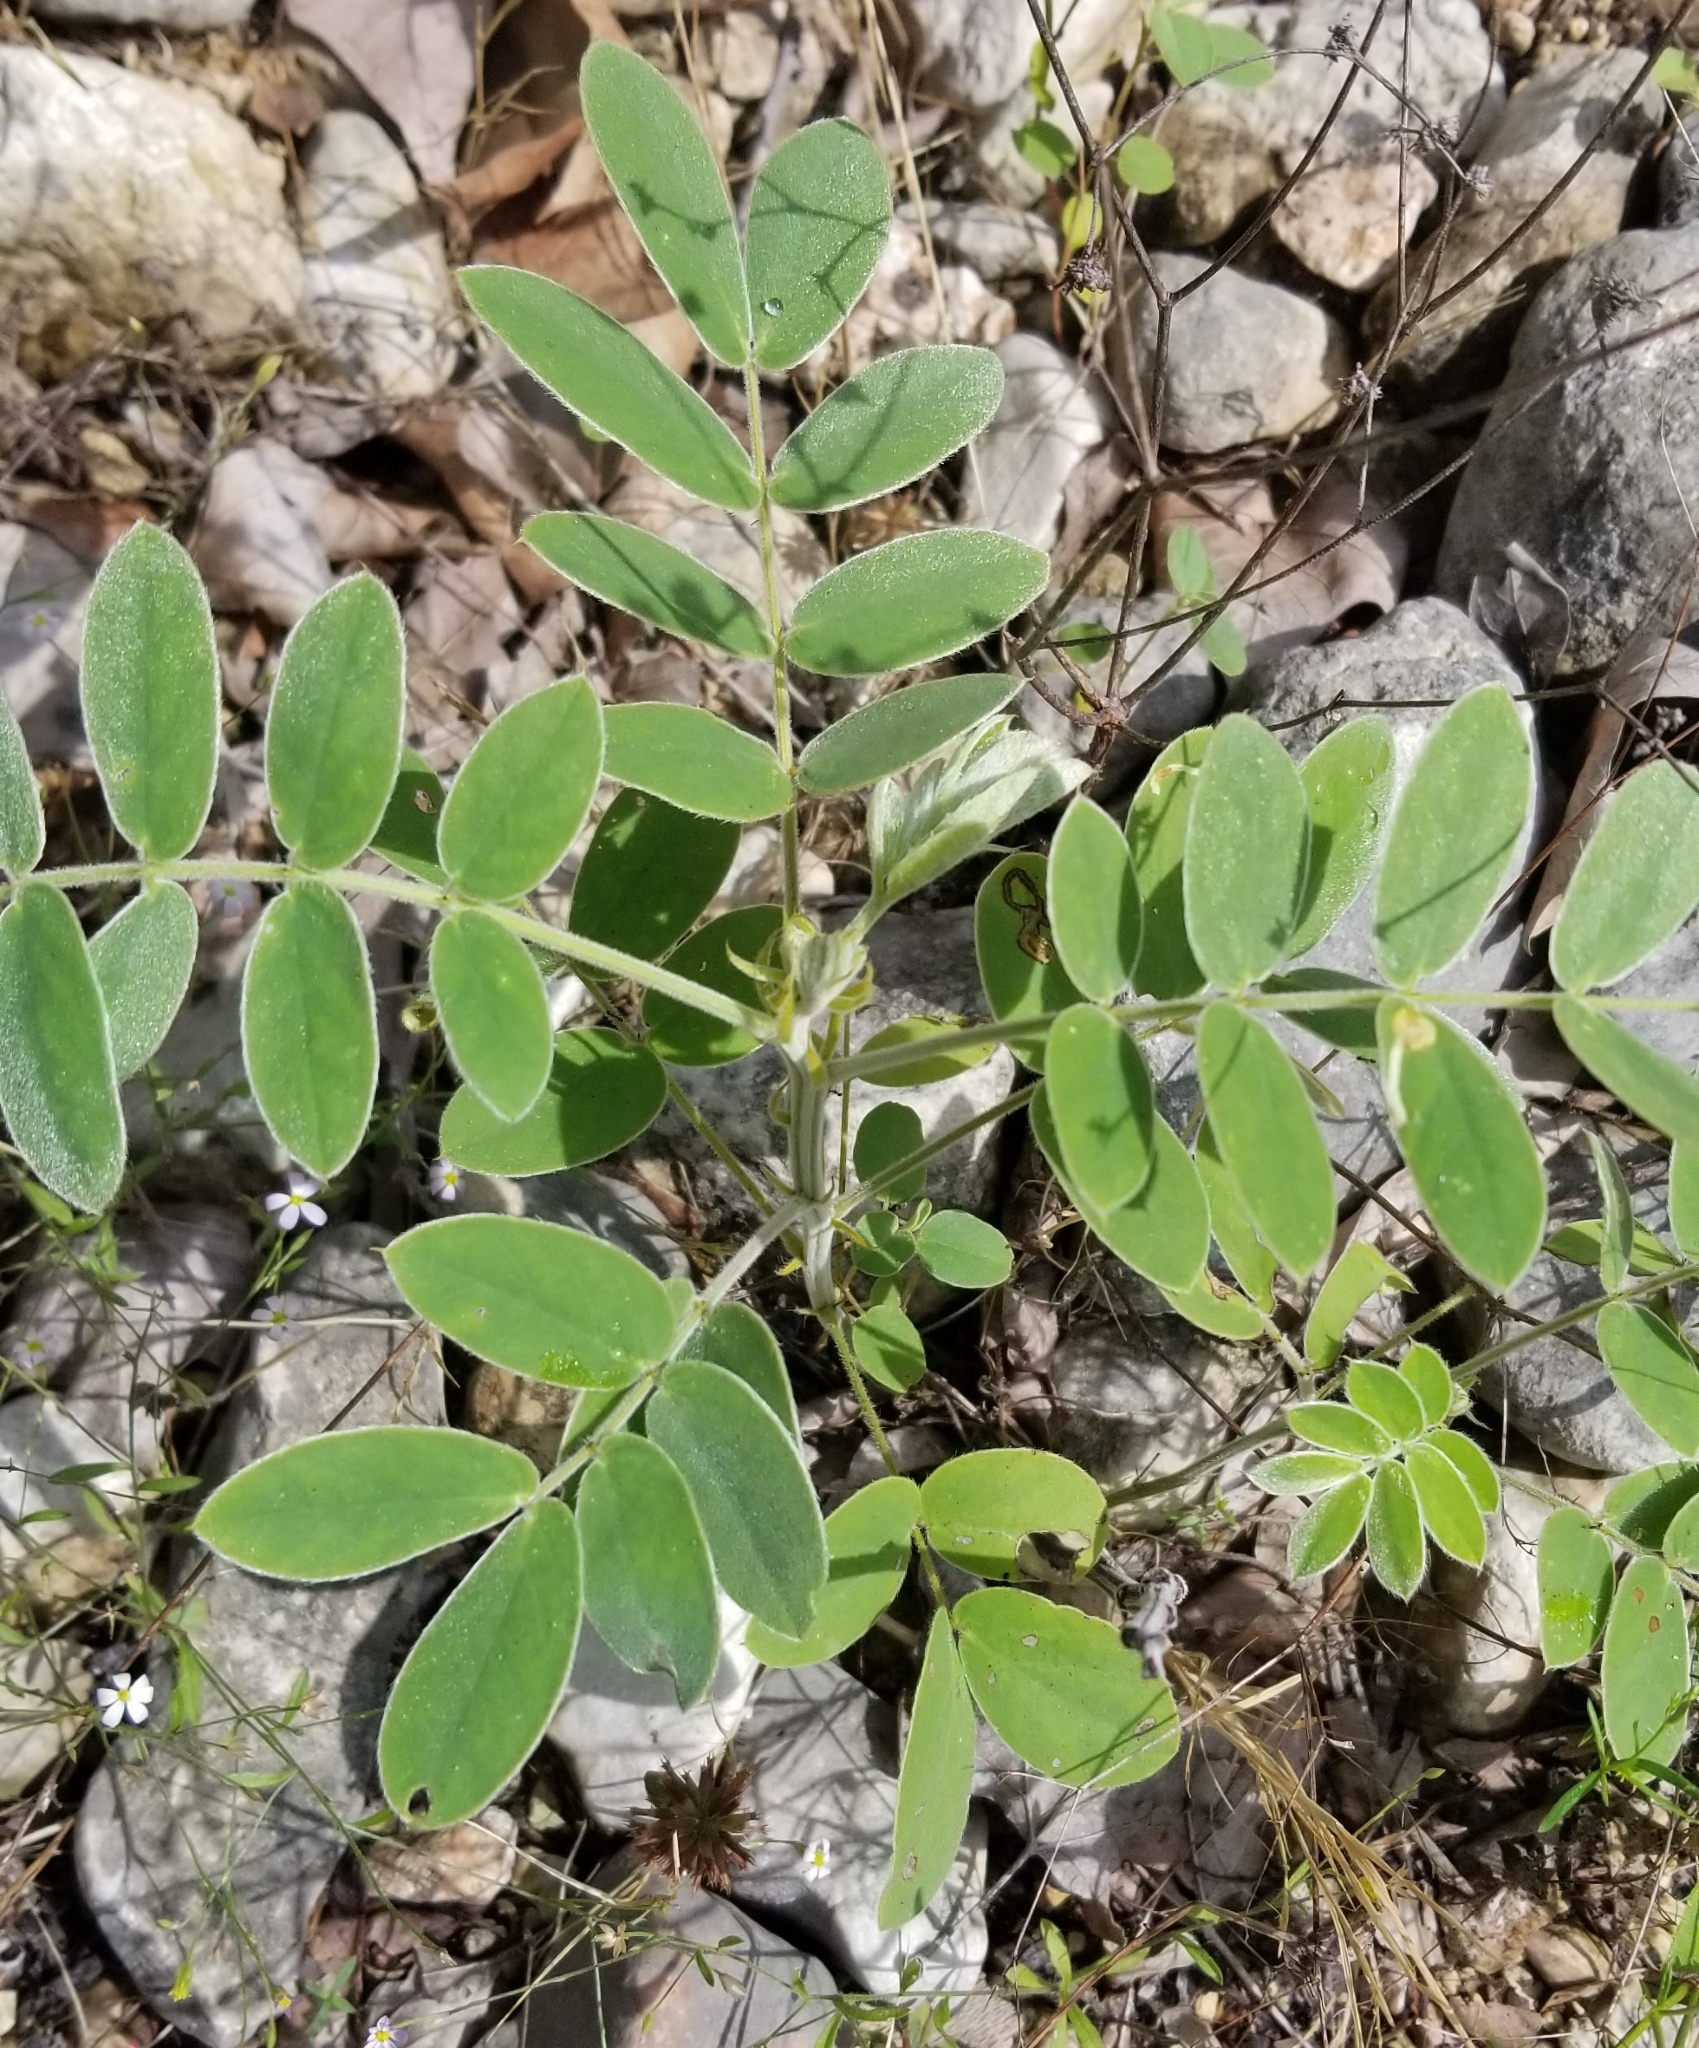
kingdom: Plantae
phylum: Tracheophyta
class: Magnoliopsida
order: Fabales
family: Fabaceae
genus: Senna
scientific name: Senna lindheimeriana
